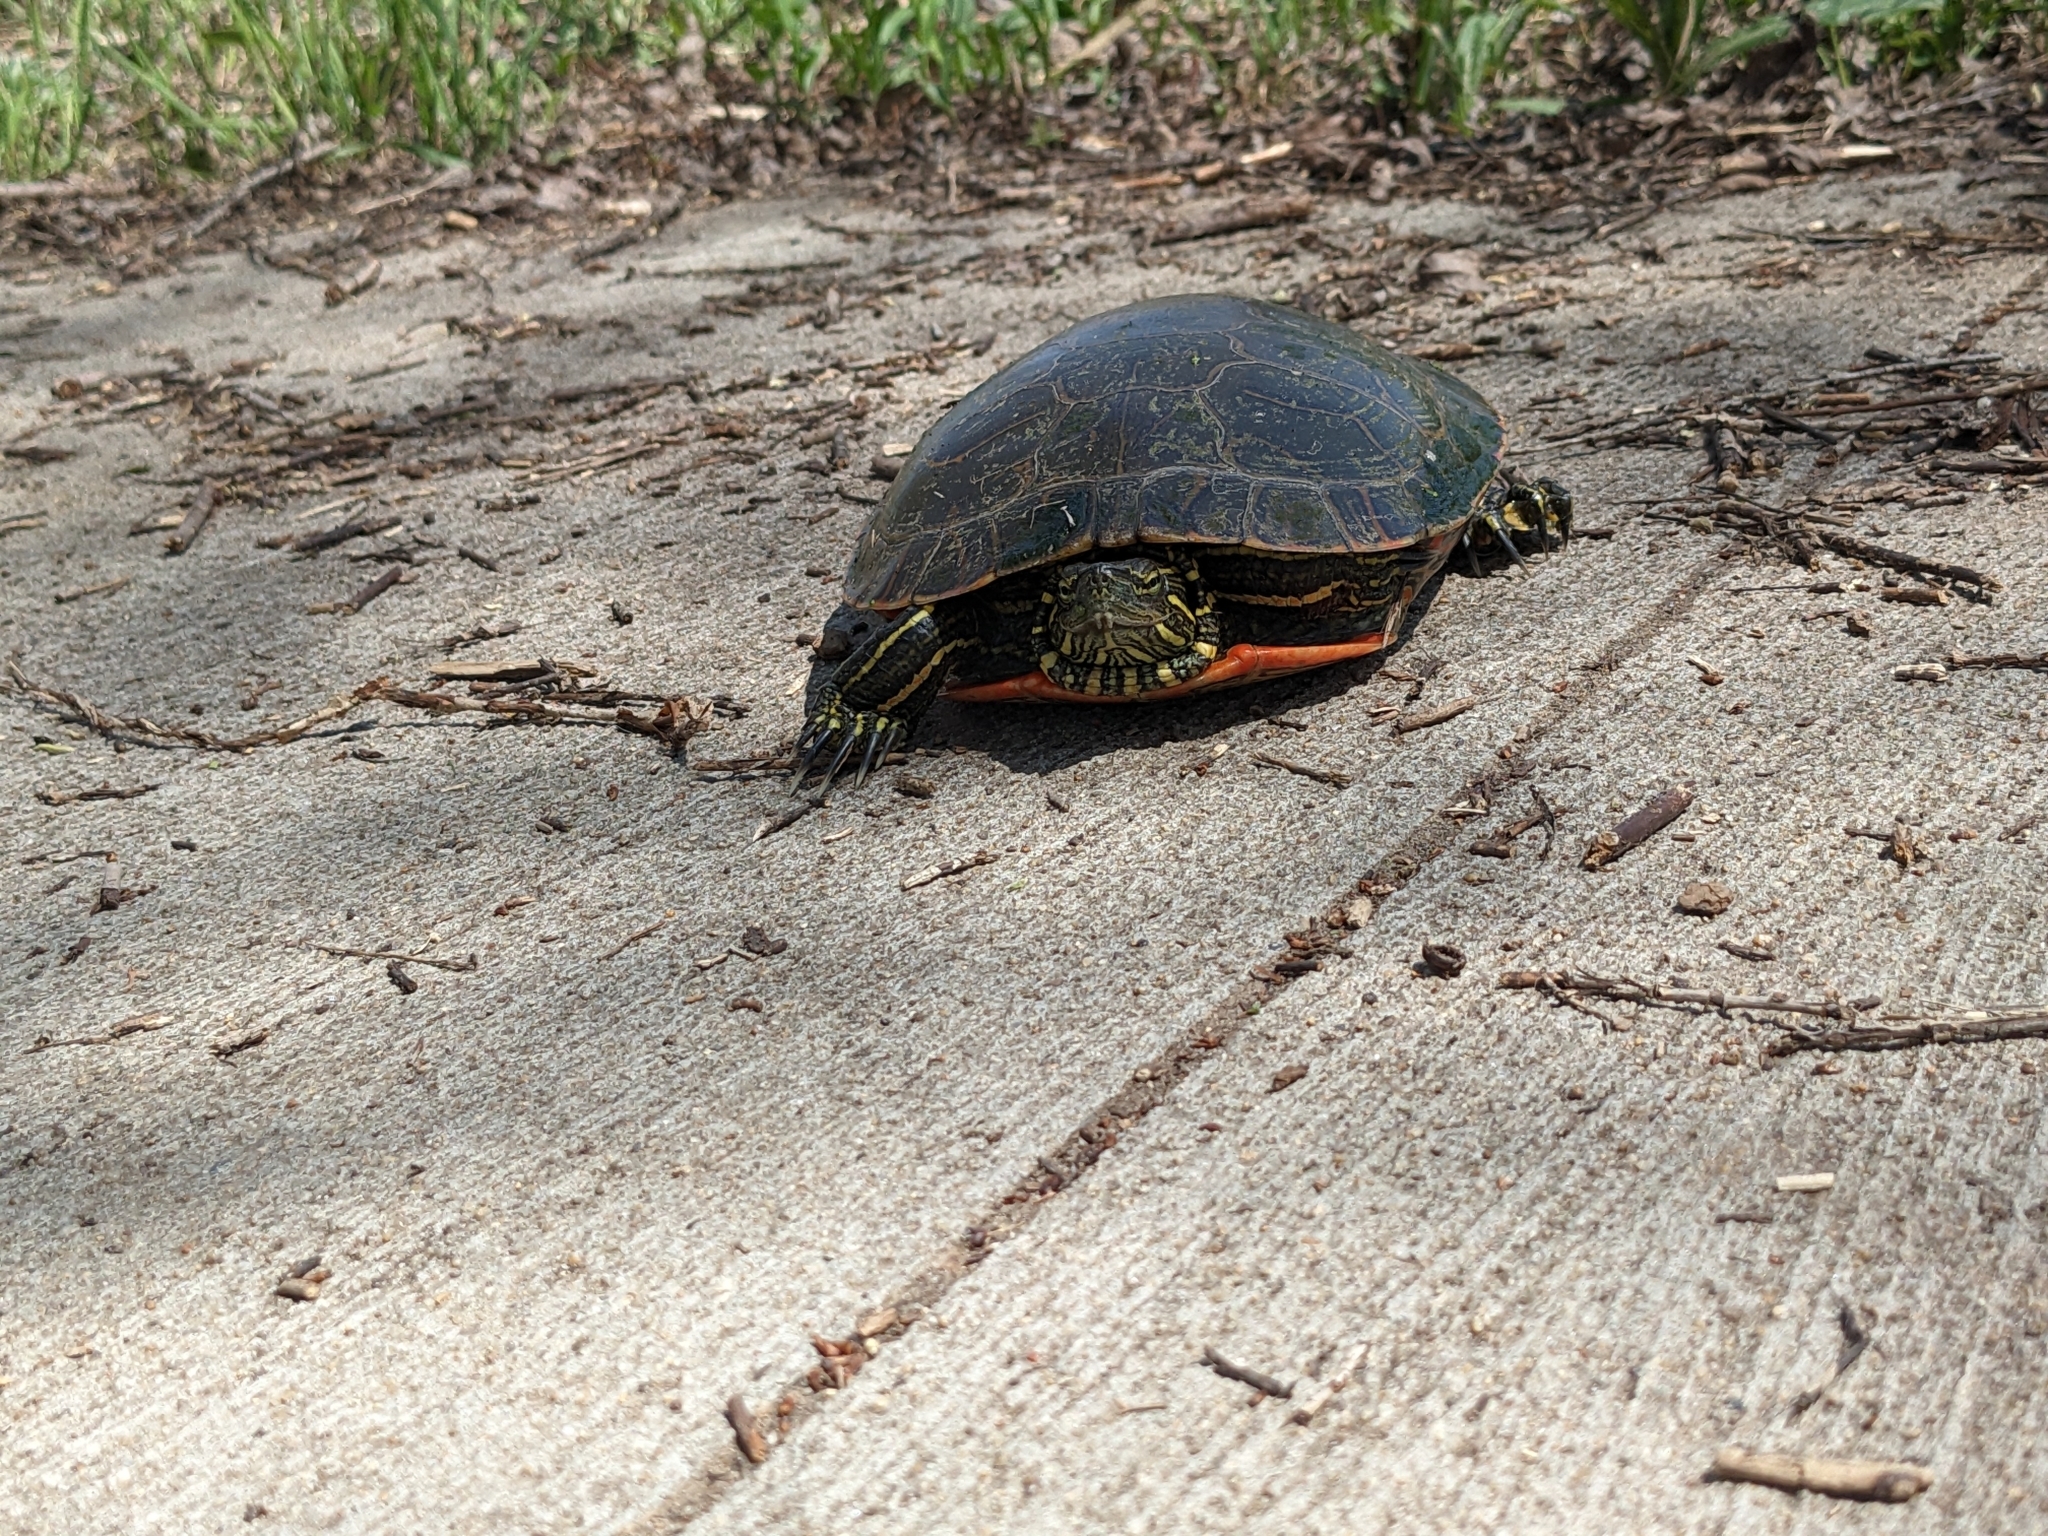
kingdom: Animalia
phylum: Chordata
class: Testudines
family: Emydidae
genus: Chrysemys
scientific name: Chrysemys picta
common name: Painted turtle
